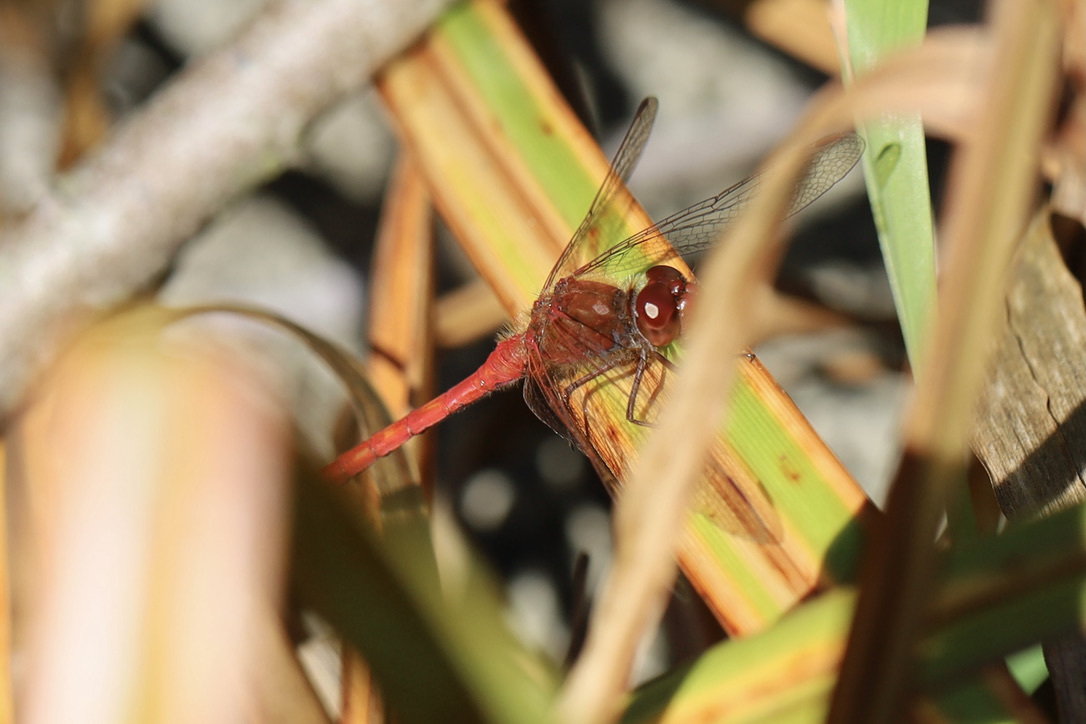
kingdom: Animalia
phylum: Arthropoda
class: Insecta
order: Odonata
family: Libellulidae
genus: Sympetrum
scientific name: Sympetrum vicinum
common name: Autumn meadowhawk
